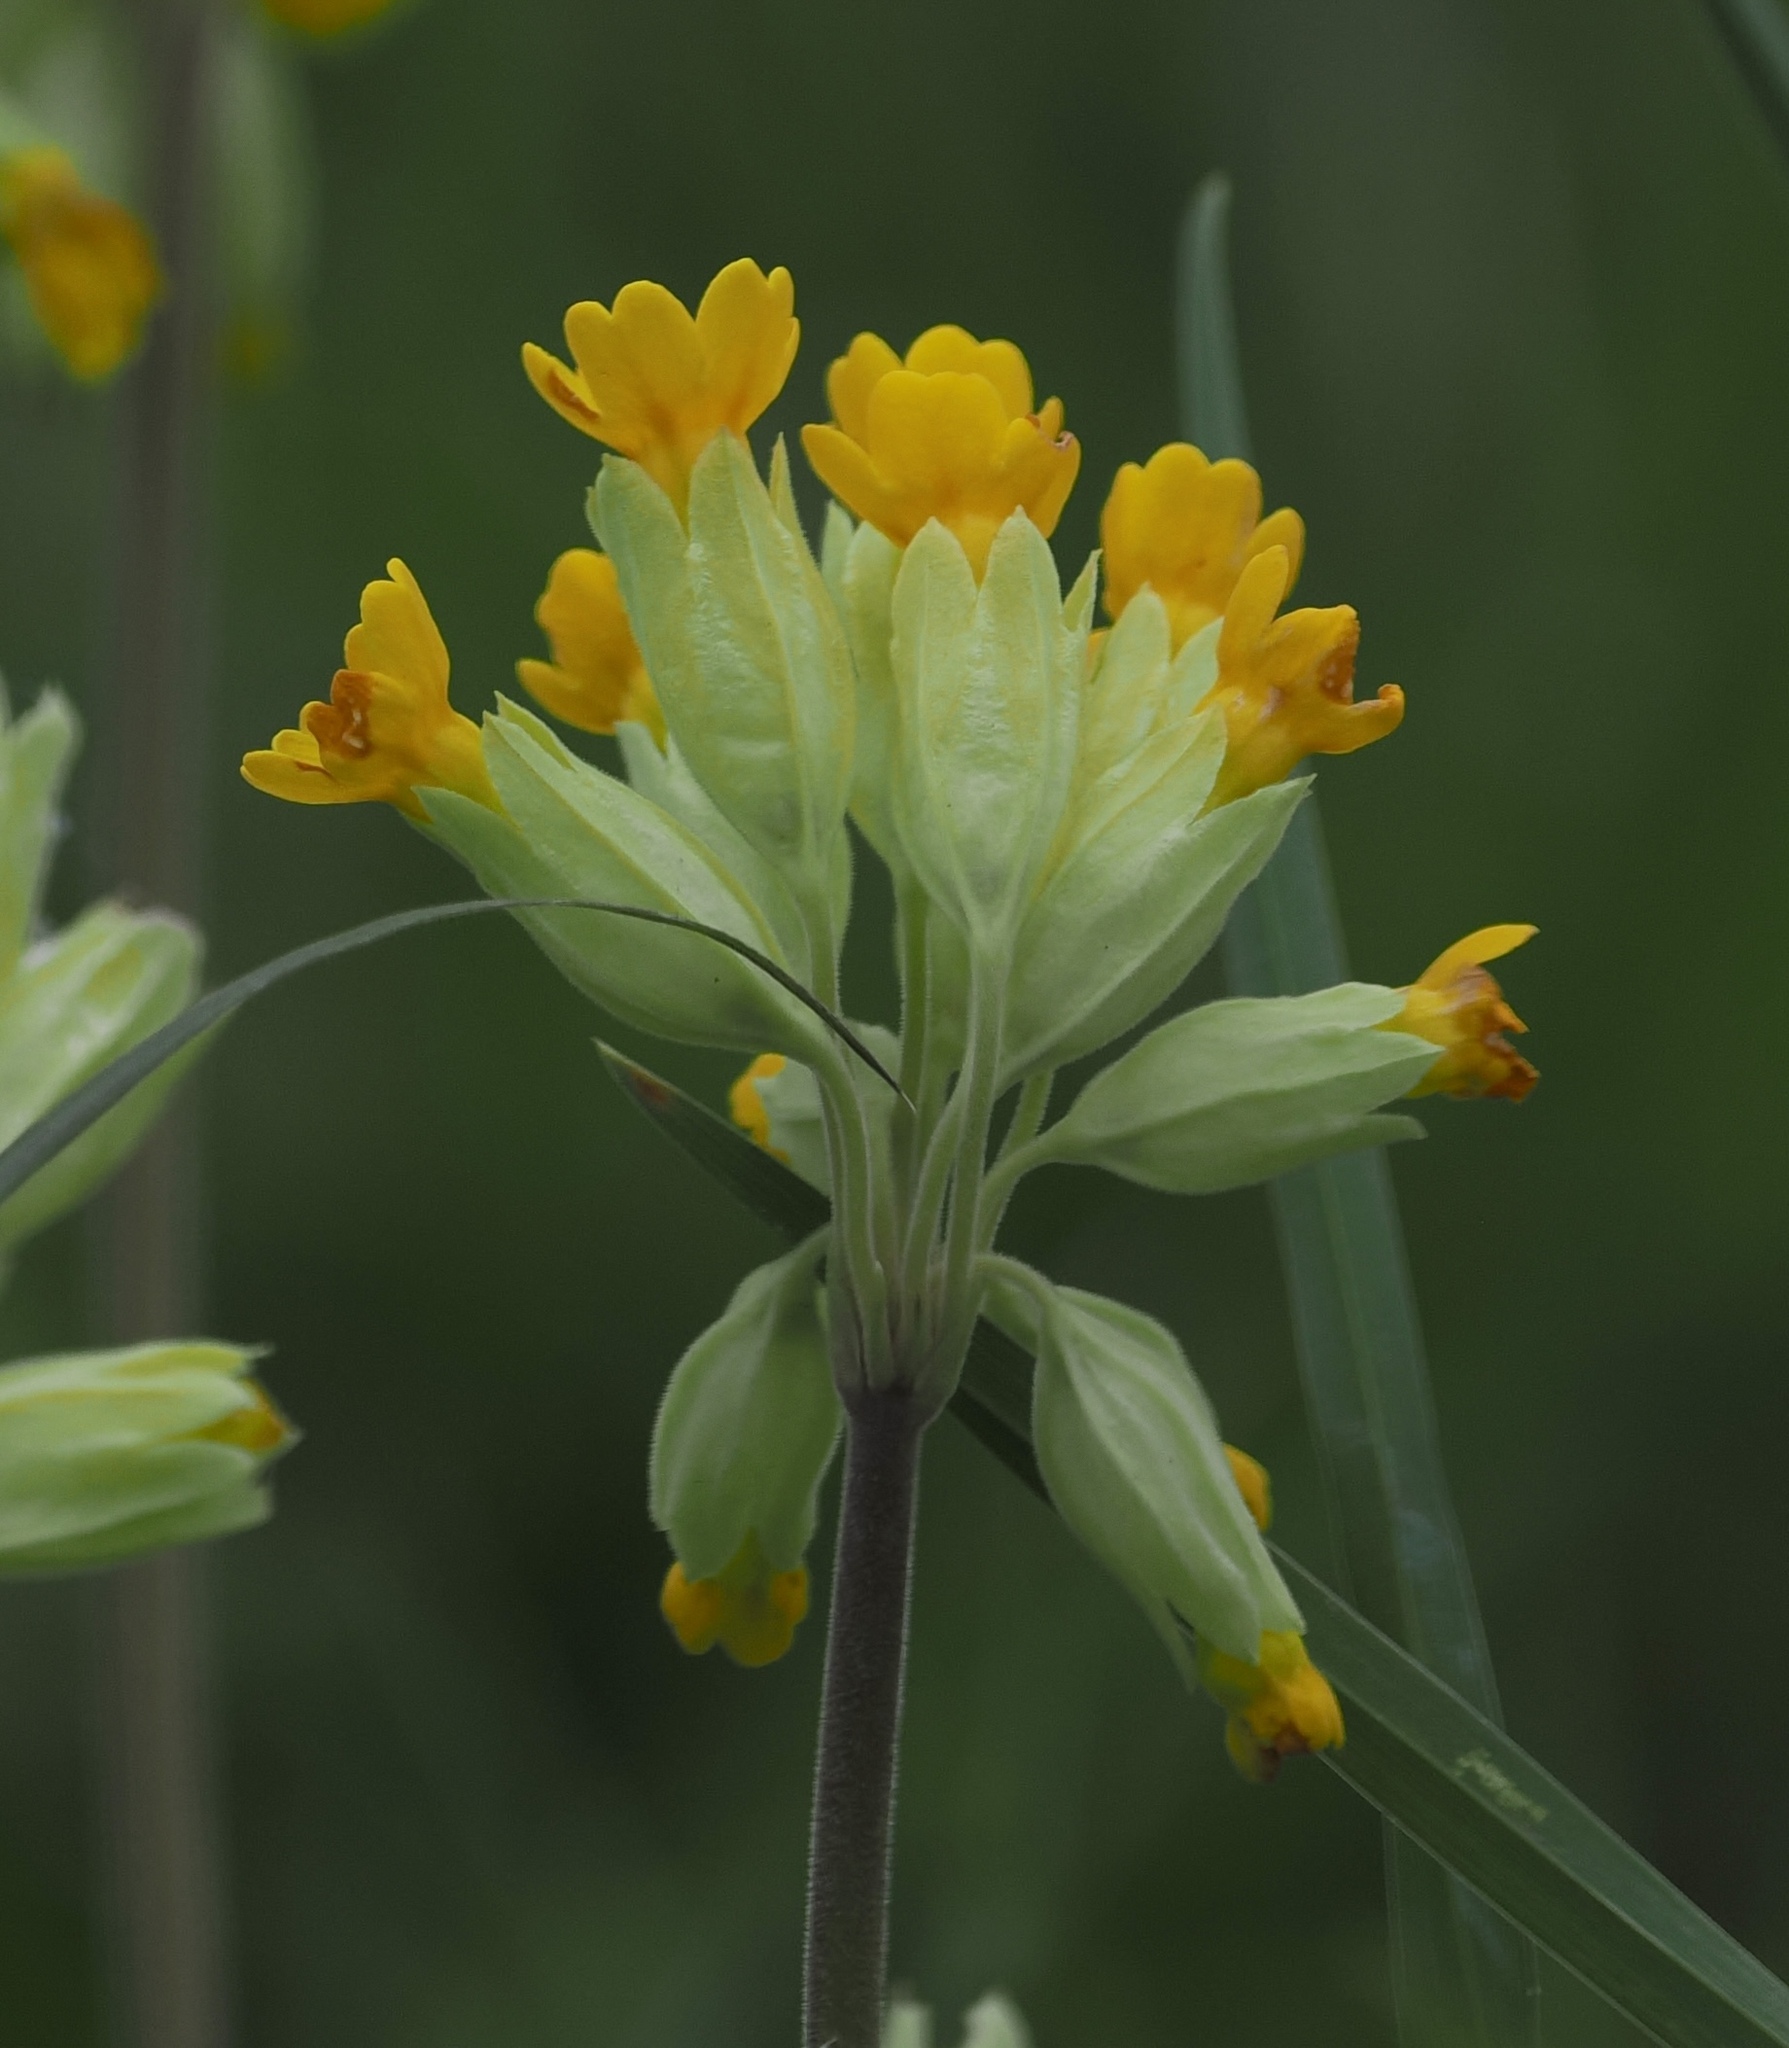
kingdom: Plantae
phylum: Tracheophyta
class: Magnoliopsida
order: Ericales
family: Primulaceae
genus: Primula
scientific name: Primula veris
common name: Cowslip
